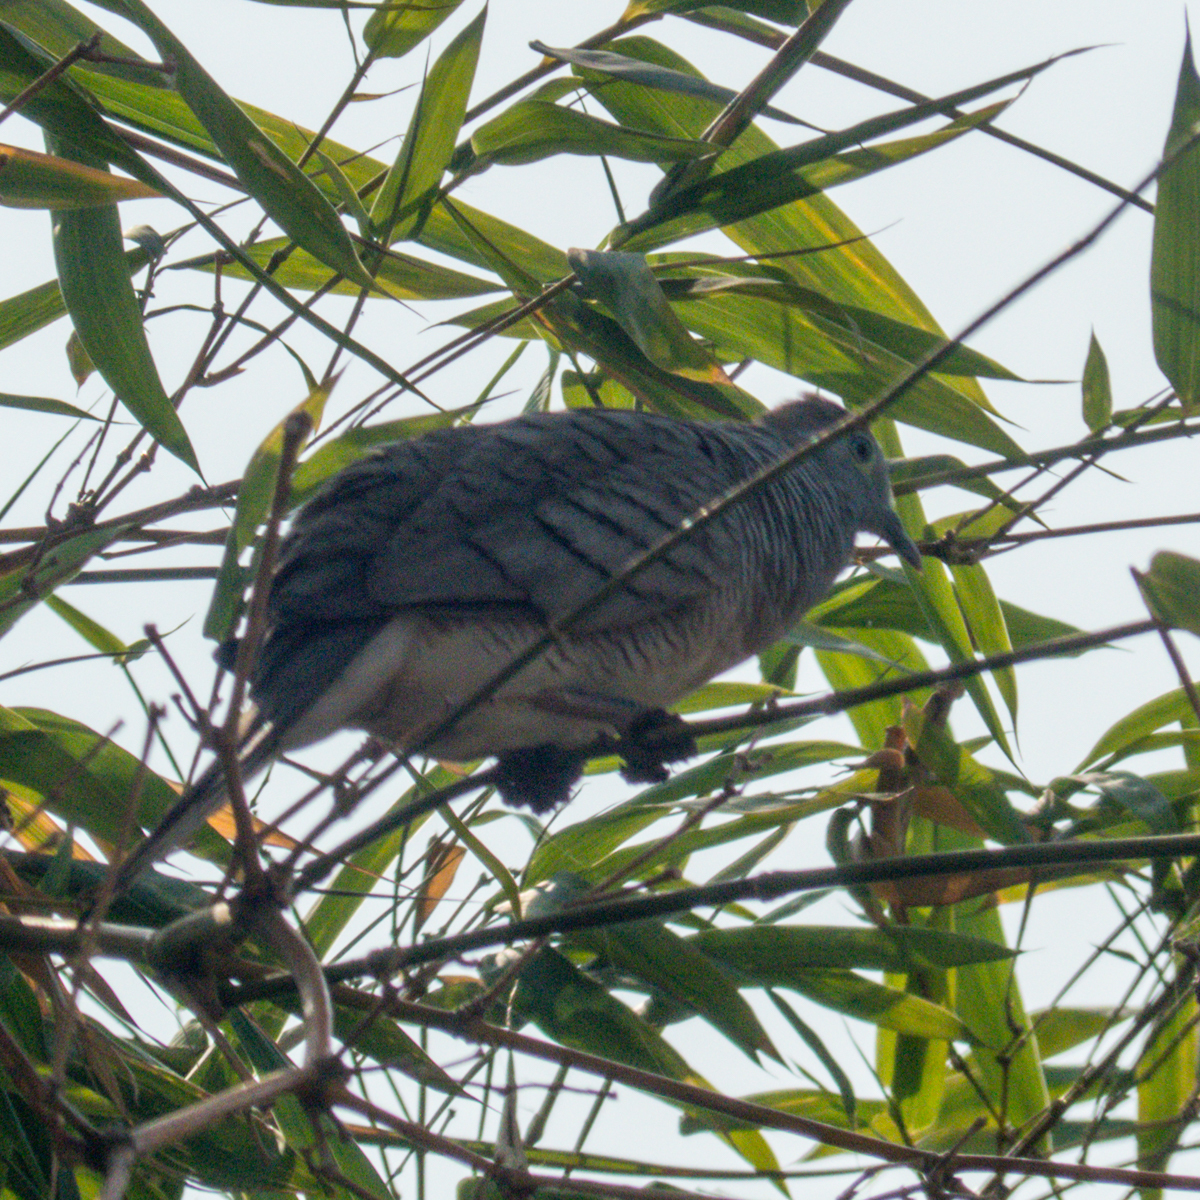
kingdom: Animalia
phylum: Chordata
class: Aves
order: Columbiformes
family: Columbidae
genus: Geopelia
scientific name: Geopelia striata
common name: Zebra dove
